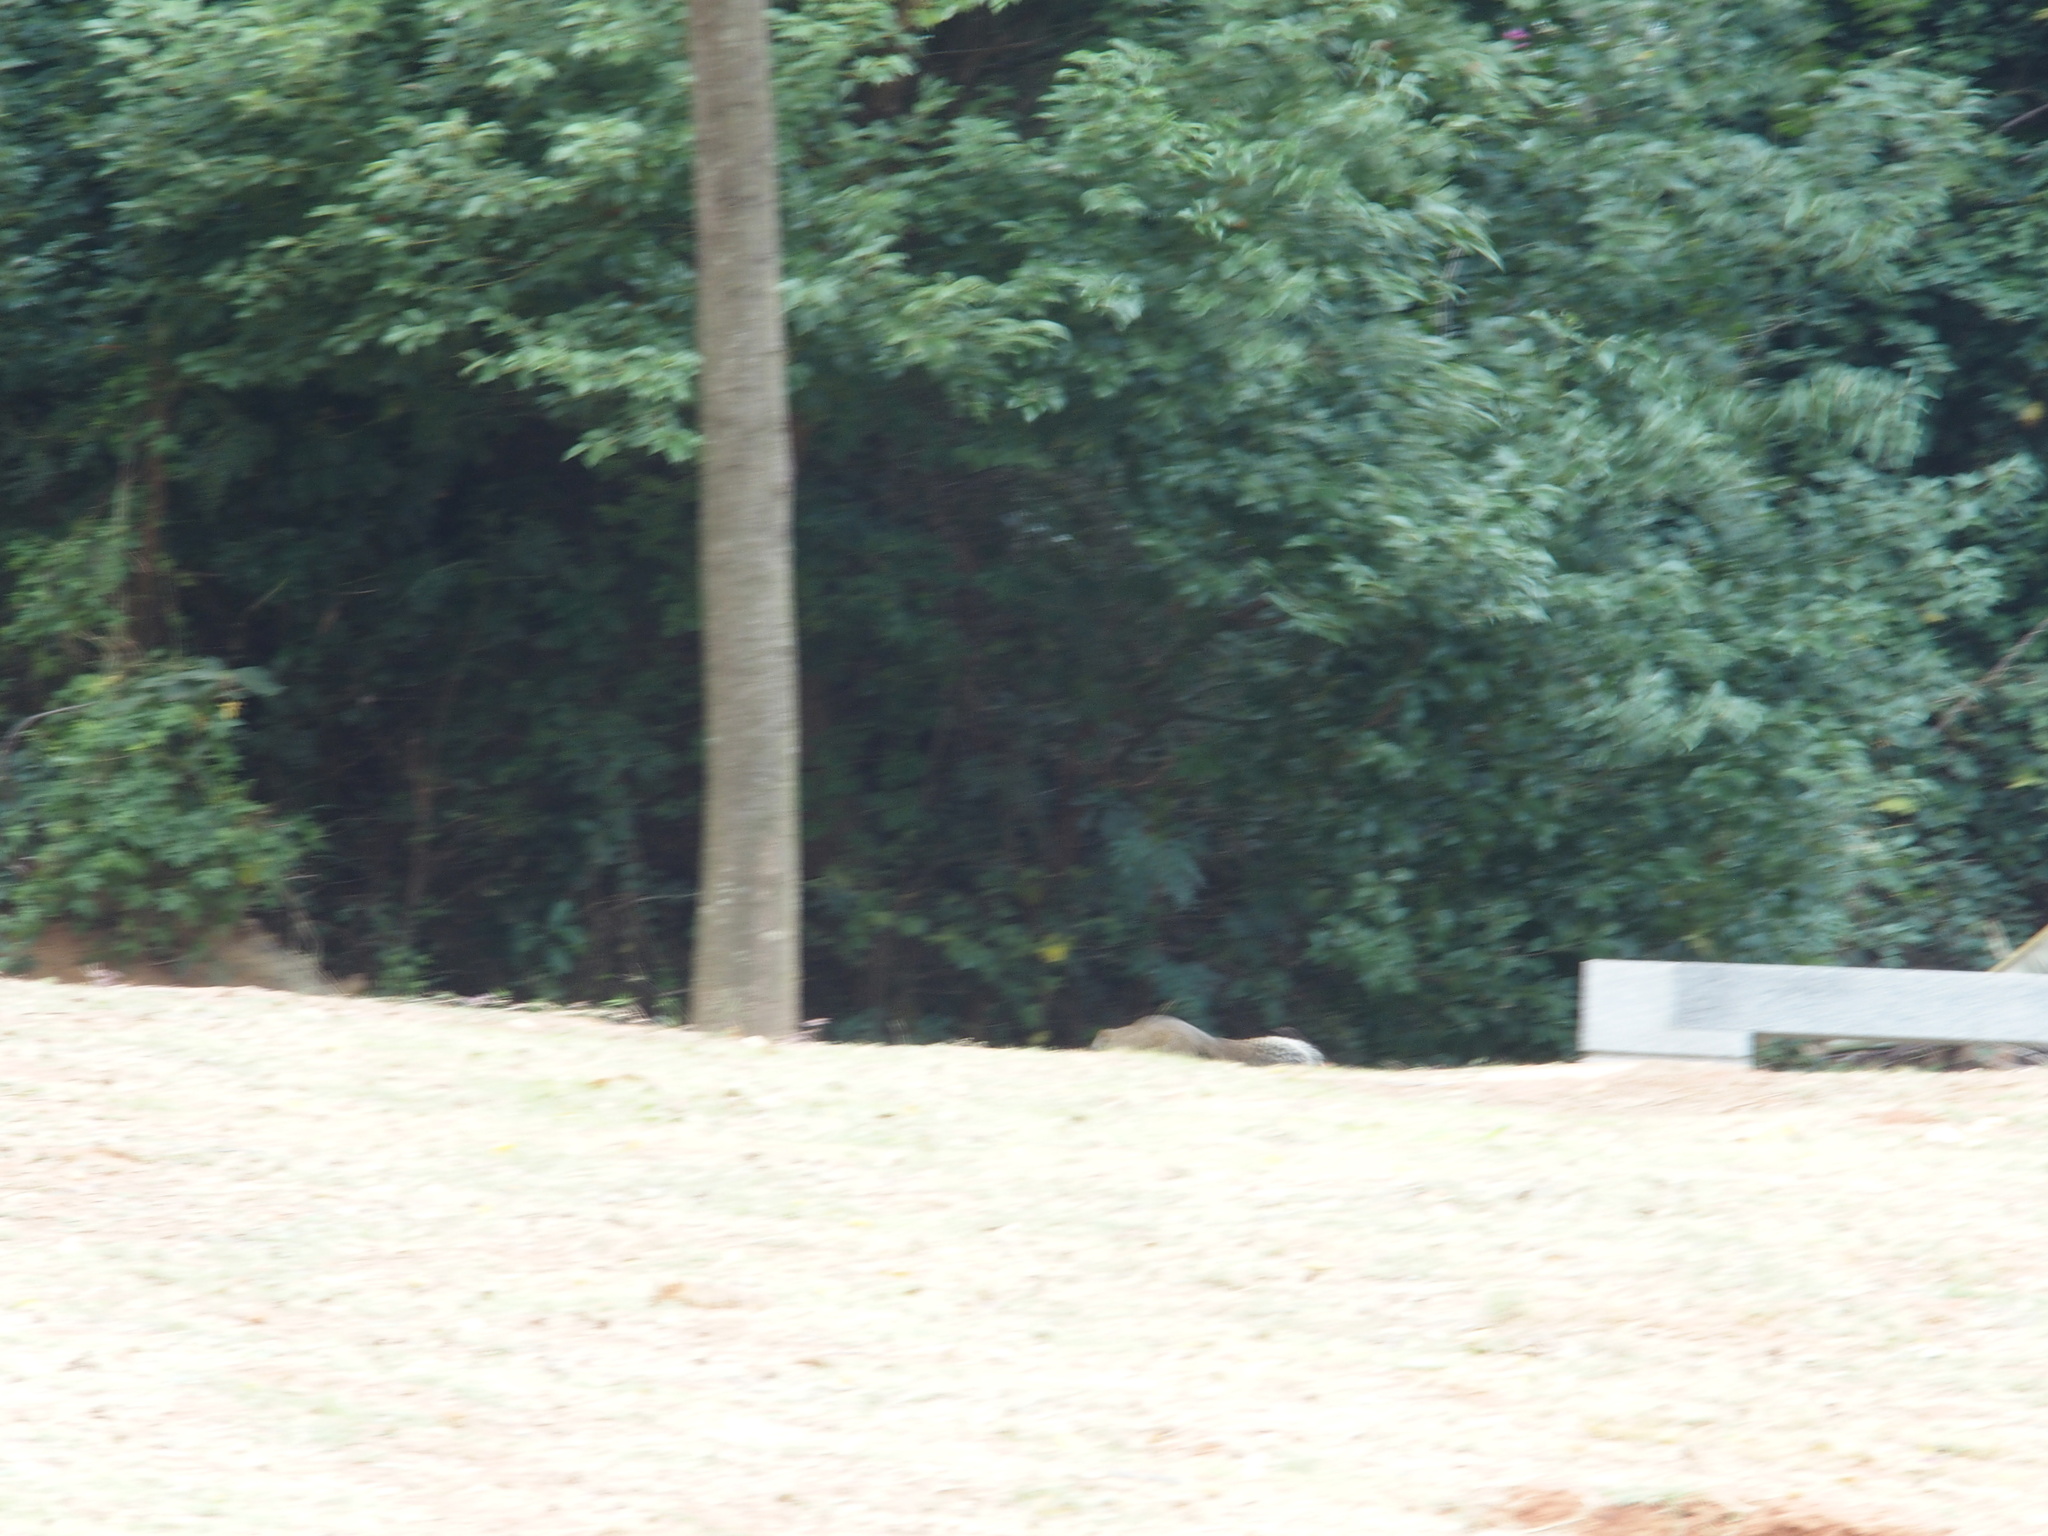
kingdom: Animalia
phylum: Chordata
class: Mammalia
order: Rodentia
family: Sciuridae
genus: Callosciurus
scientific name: Callosciurus erythraeus
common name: Pallas's squirrel
